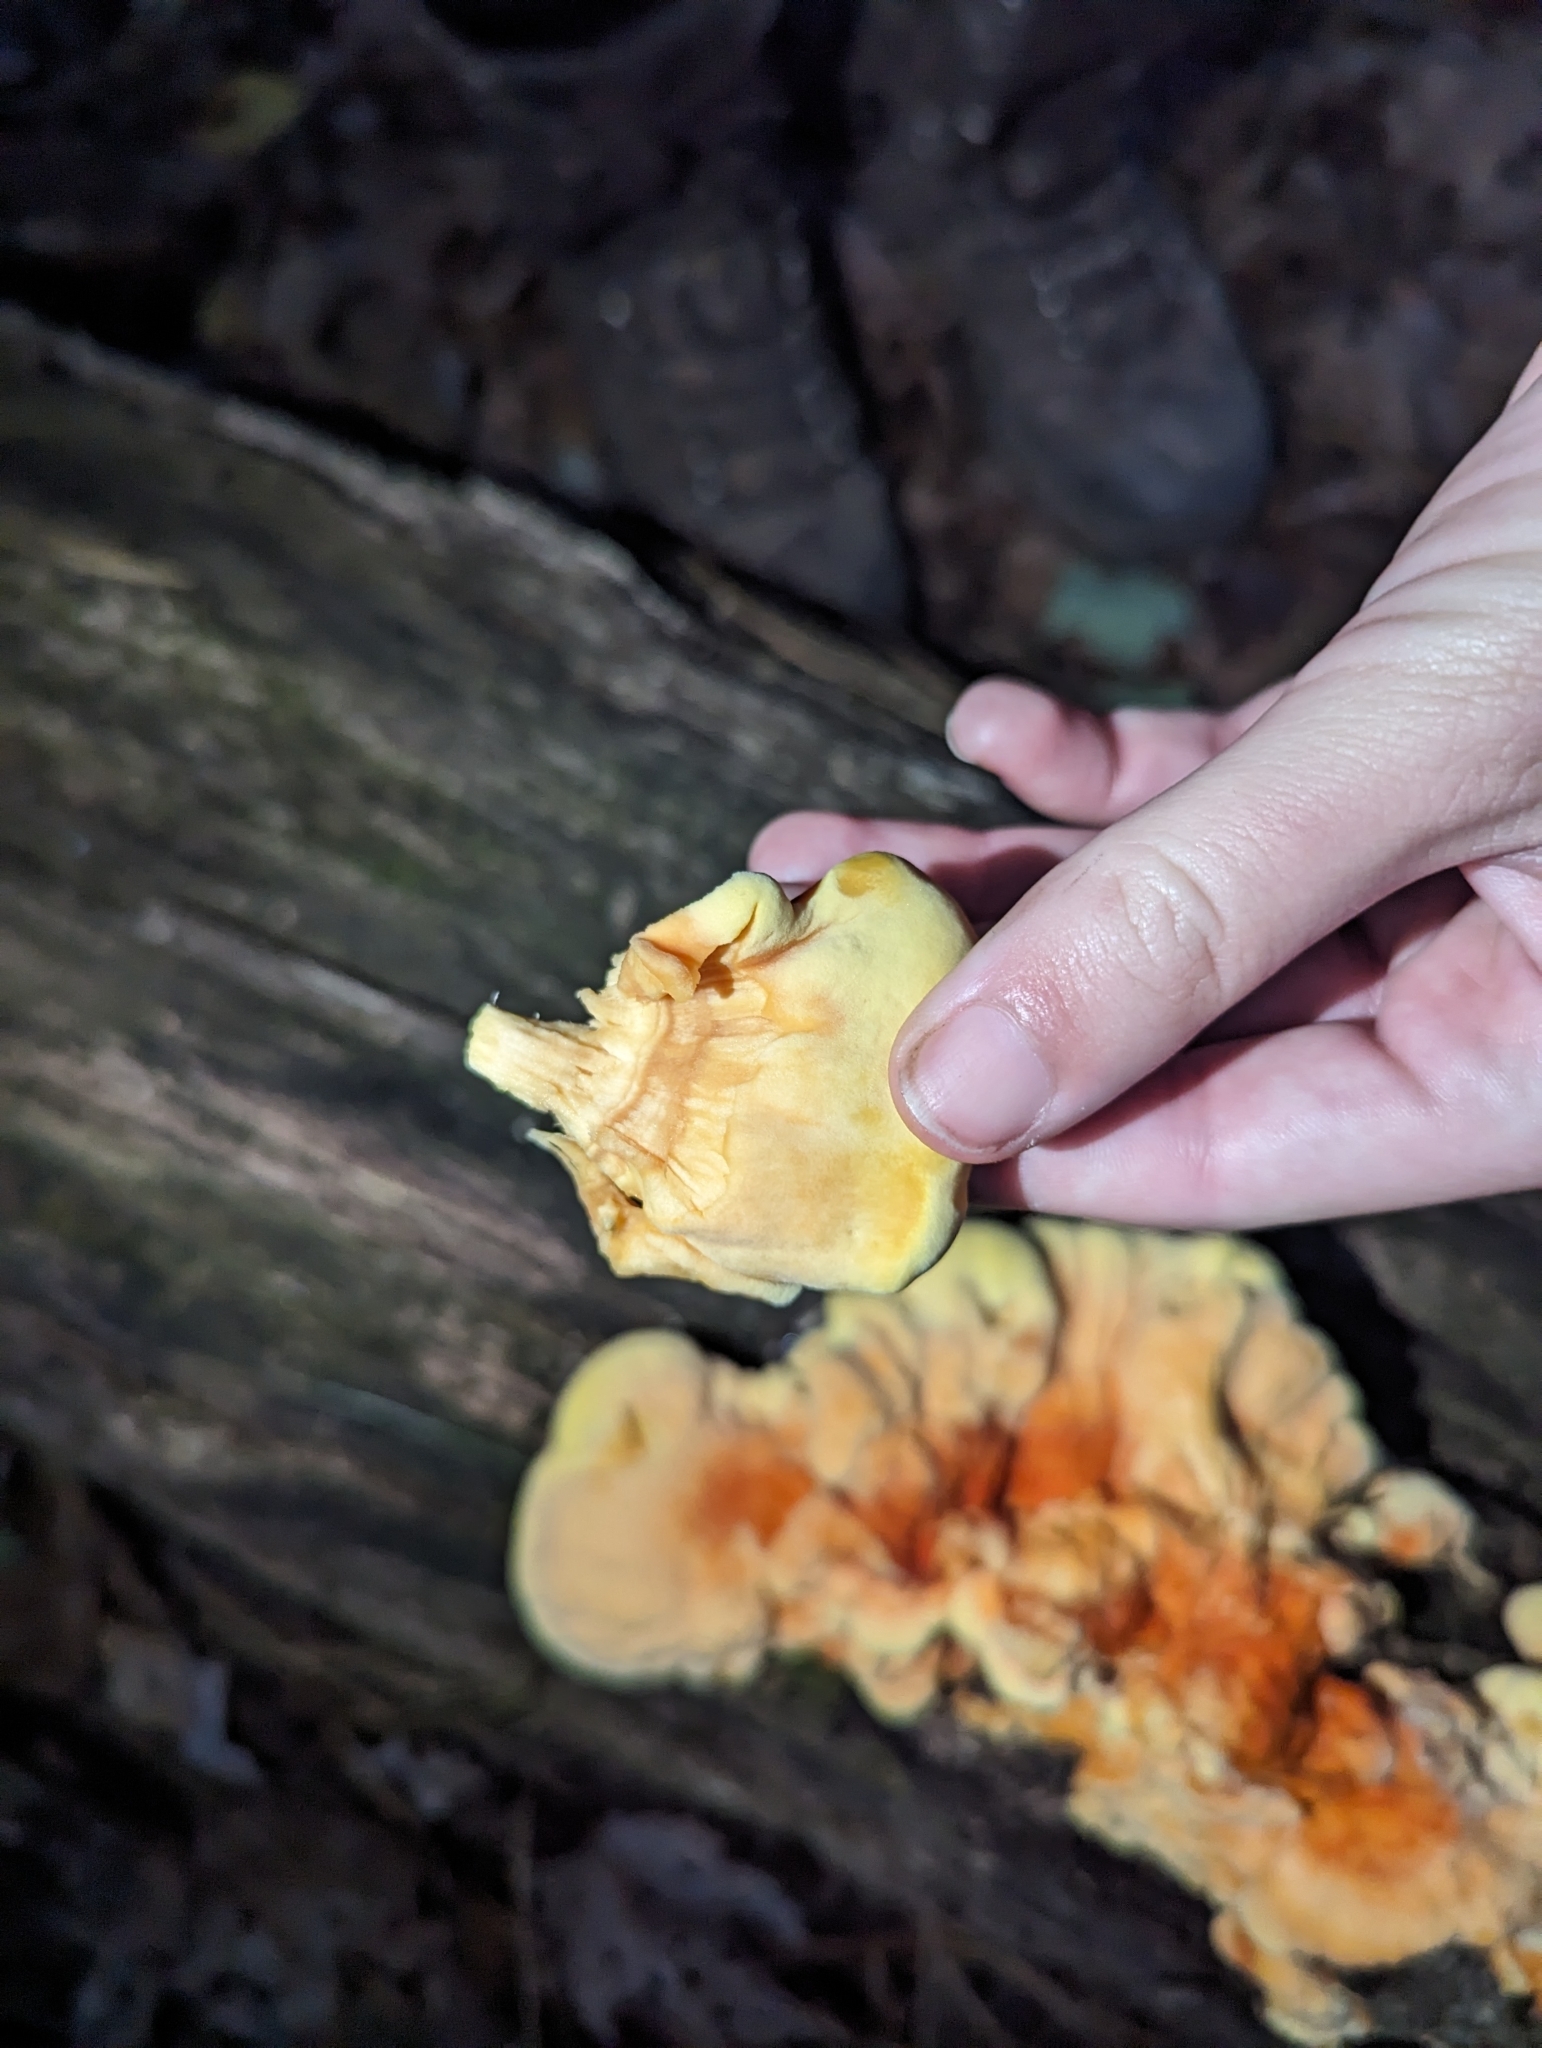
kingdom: Fungi
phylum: Basidiomycota
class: Agaricomycetes
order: Polyporales
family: Laetiporaceae
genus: Laetiporus
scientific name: Laetiporus sulphureus
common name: Chicken of the woods
